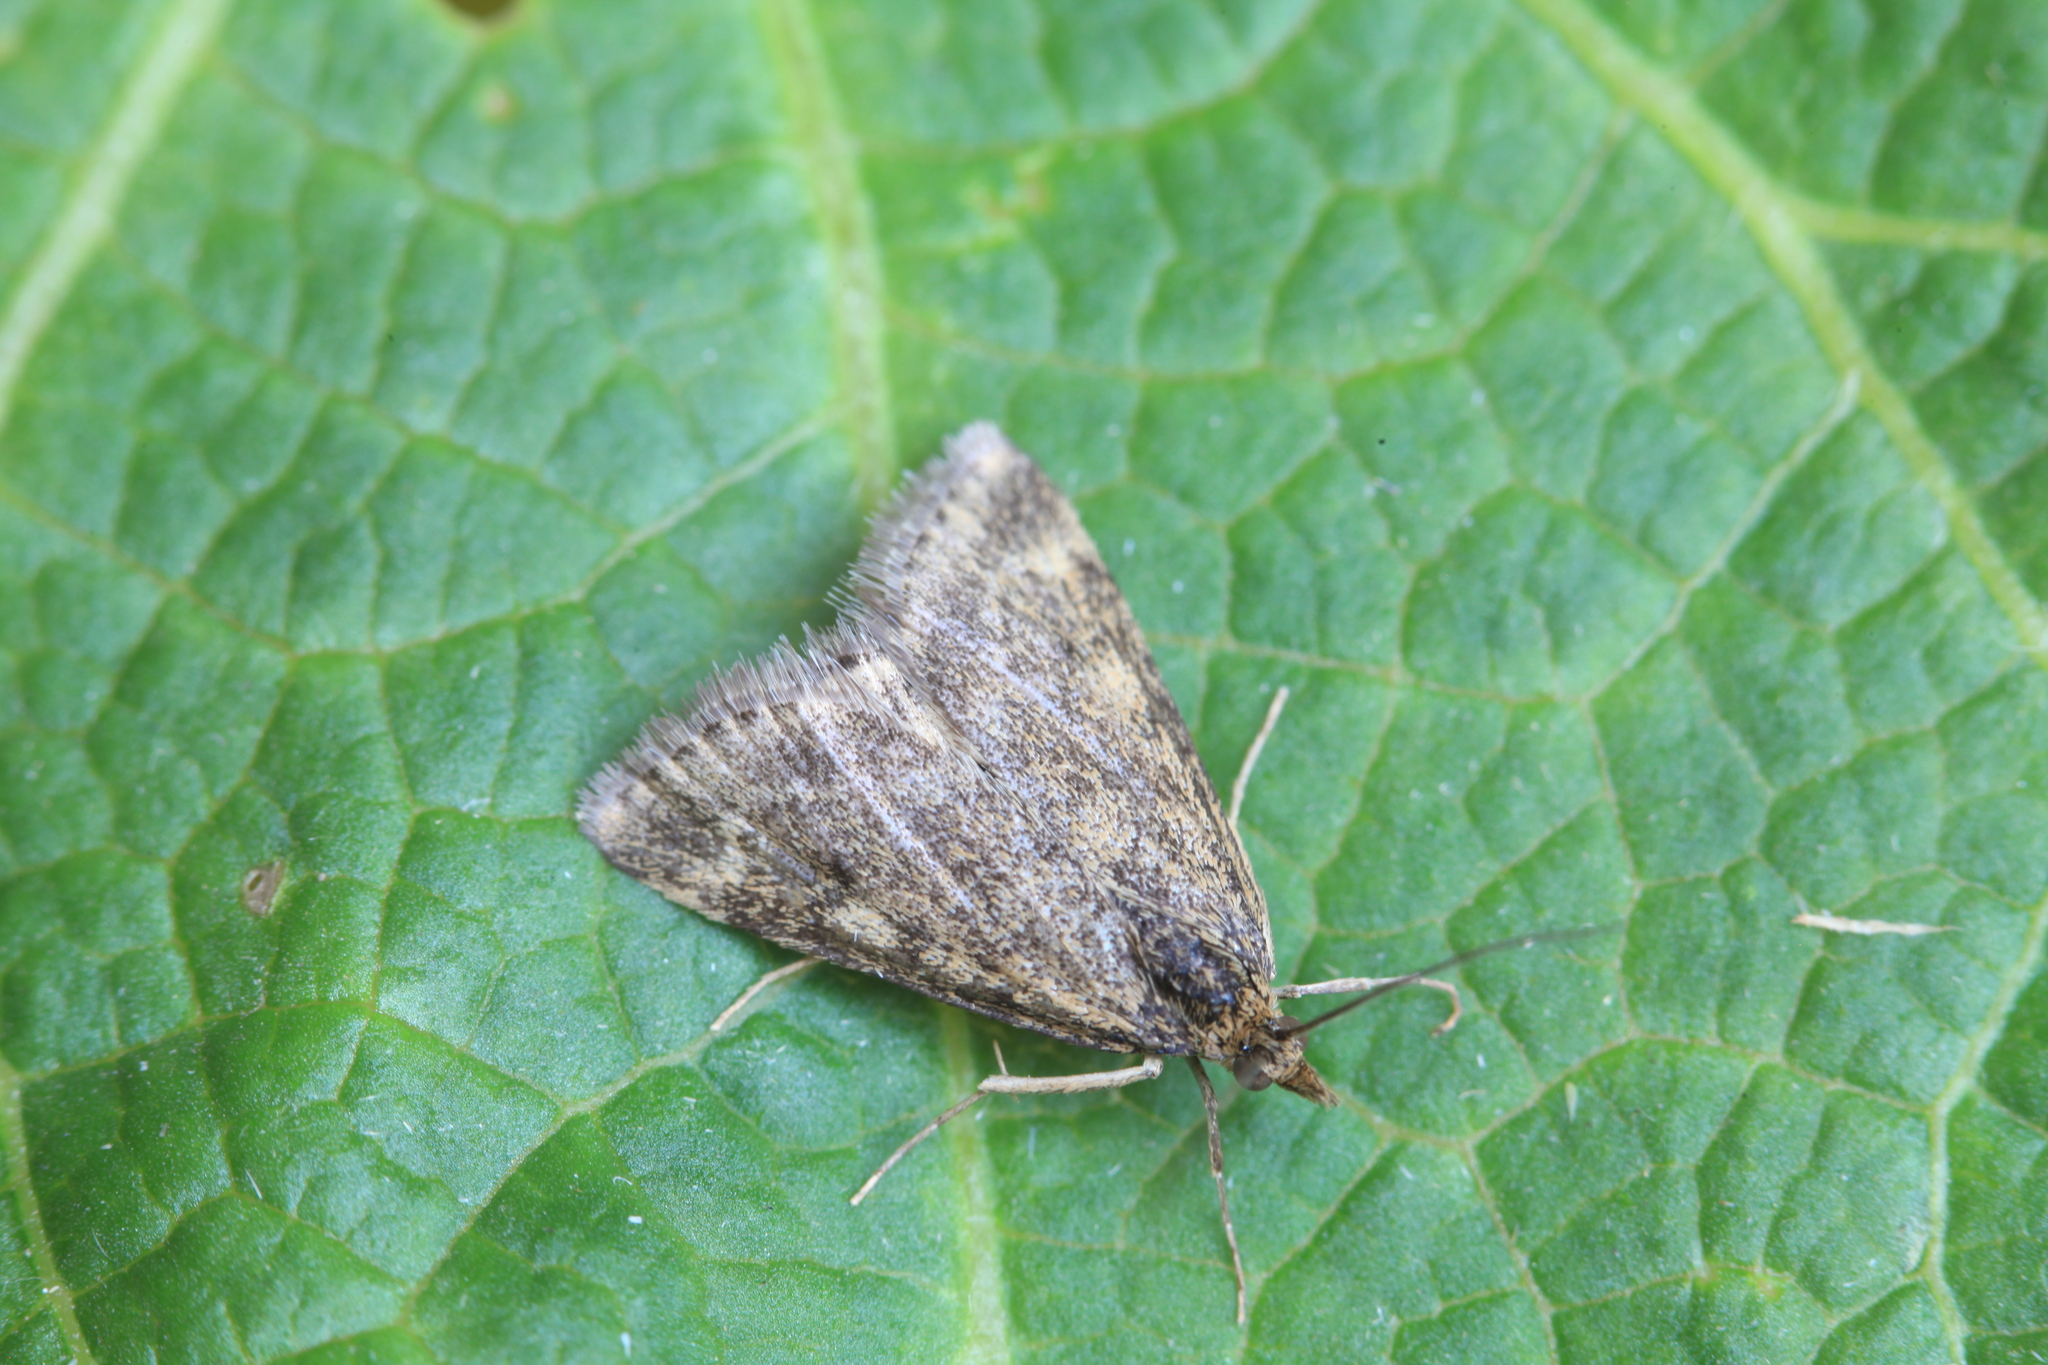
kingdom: Animalia
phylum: Arthropoda
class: Insecta
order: Lepidoptera
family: Crambidae
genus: Pyrausta
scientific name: Pyrausta despicata
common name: Straw-barred pearl
